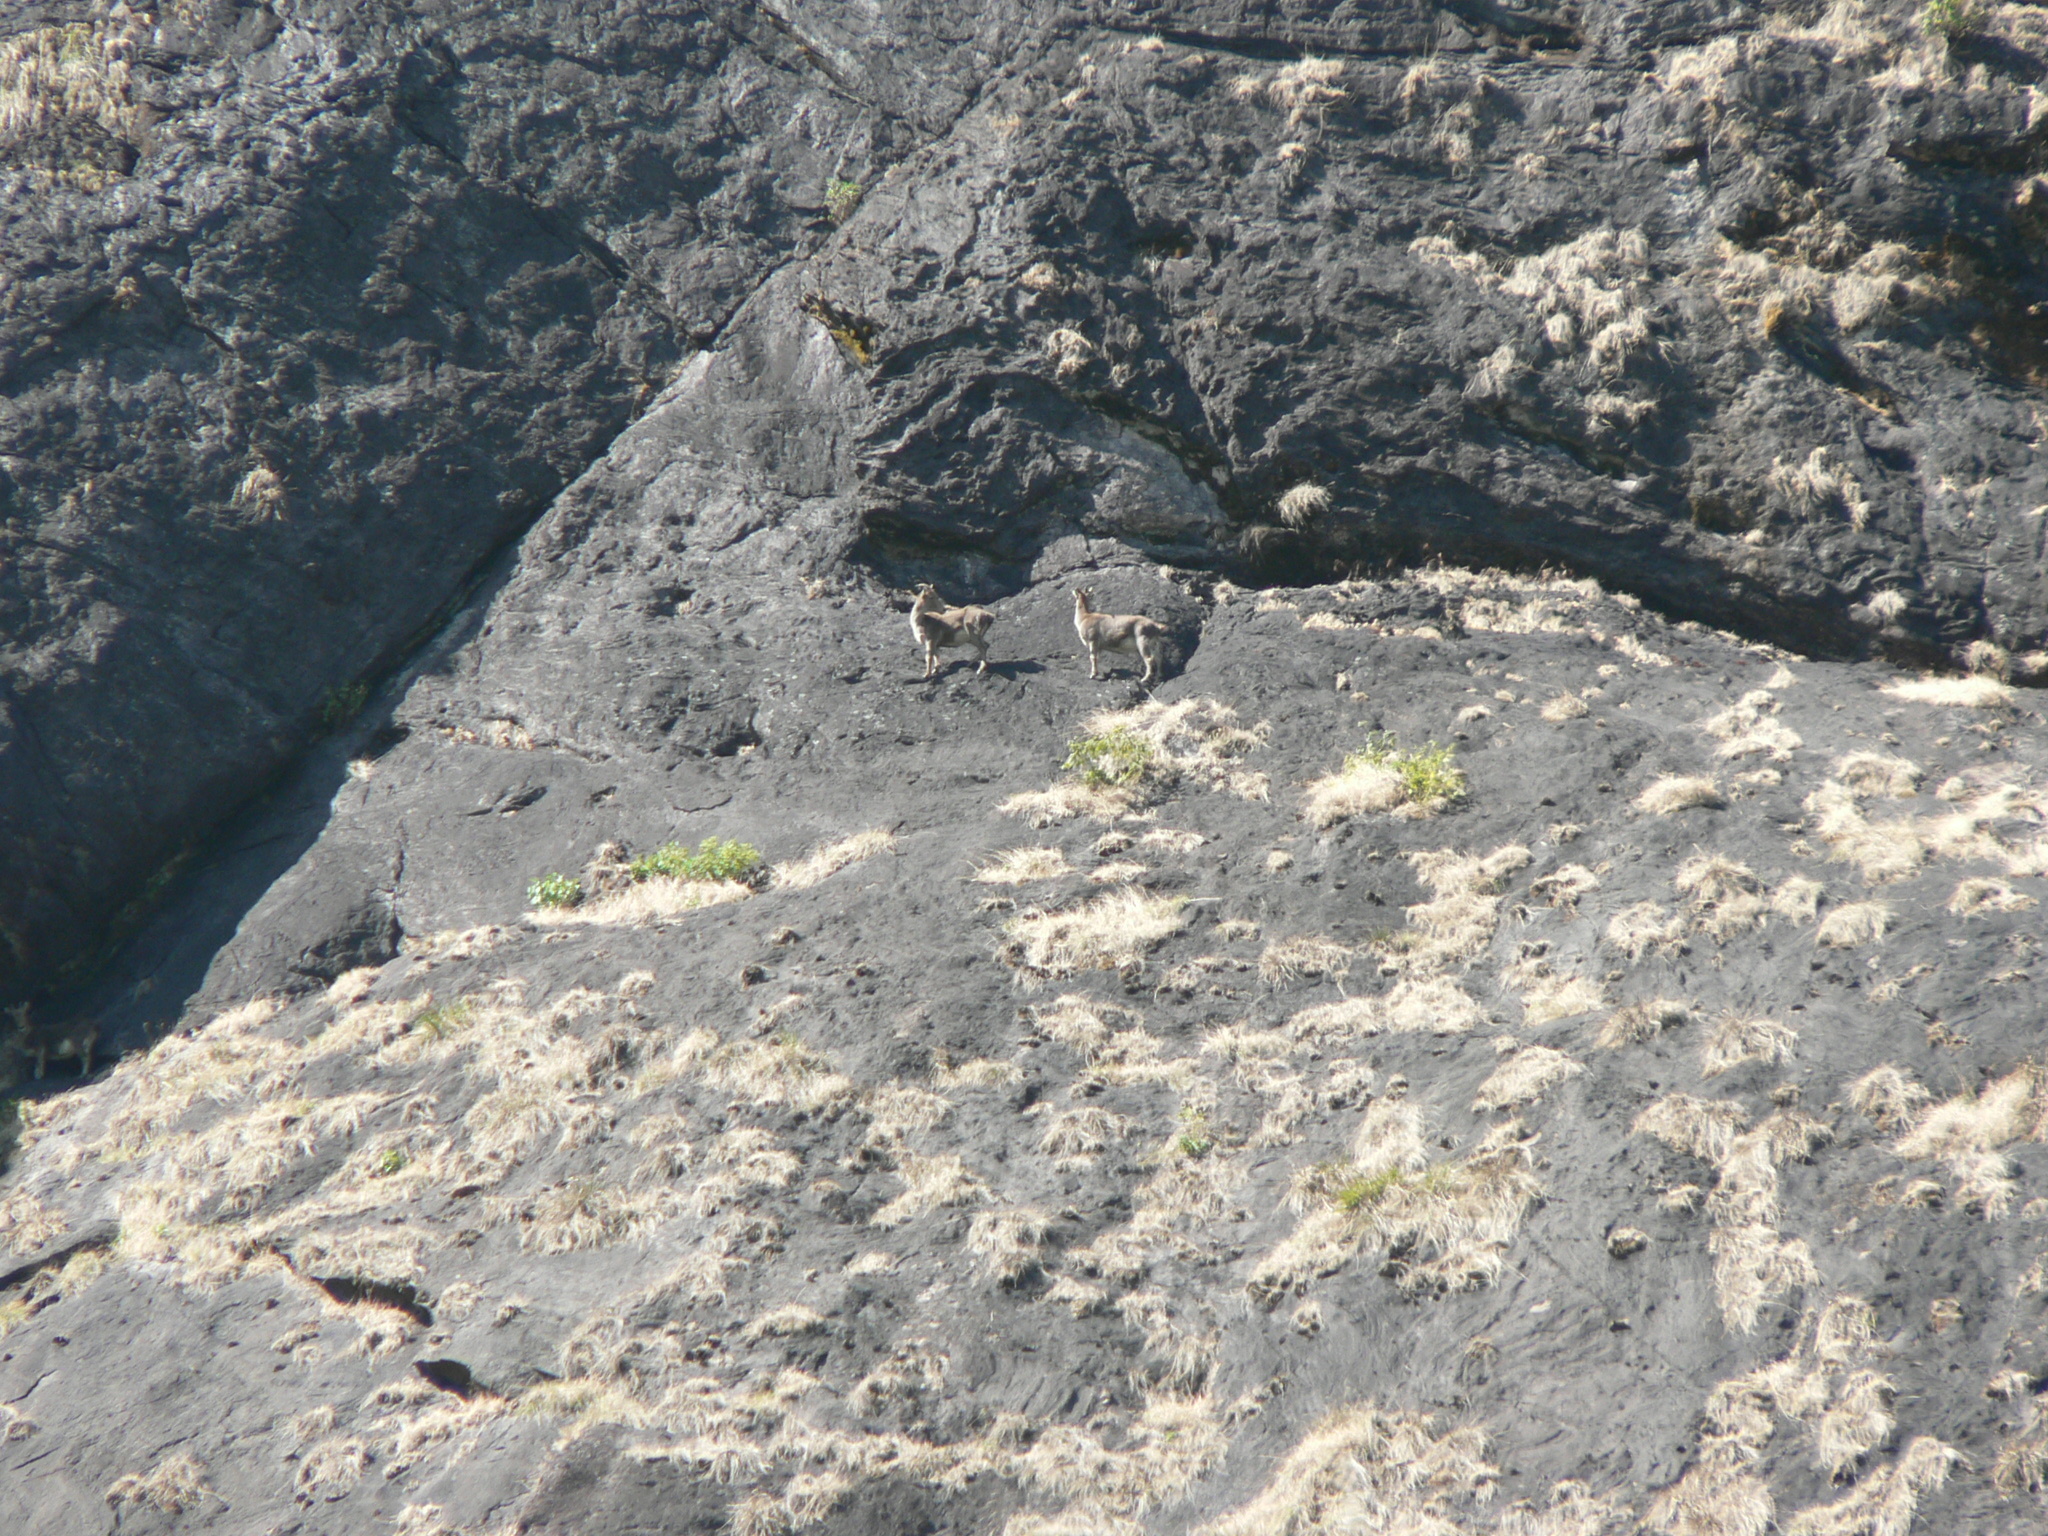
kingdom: Animalia
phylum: Chordata
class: Mammalia
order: Artiodactyla
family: Bovidae
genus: Hemitragus
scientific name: Hemitragus hylocrius
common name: Nilgiri tahr
